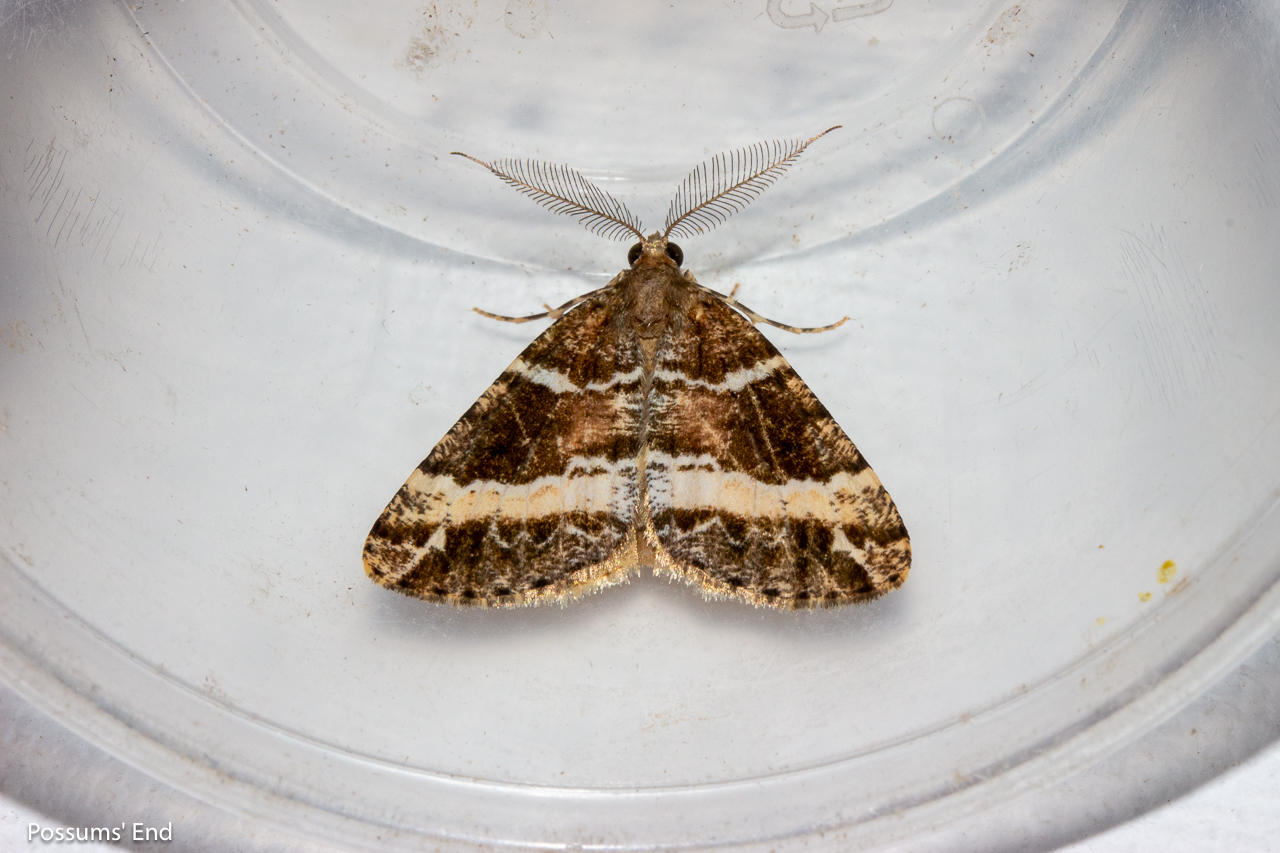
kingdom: Animalia
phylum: Arthropoda
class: Insecta
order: Lepidoptera
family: Geometridae
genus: Pseudocoremia
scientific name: Pseudocoremia
